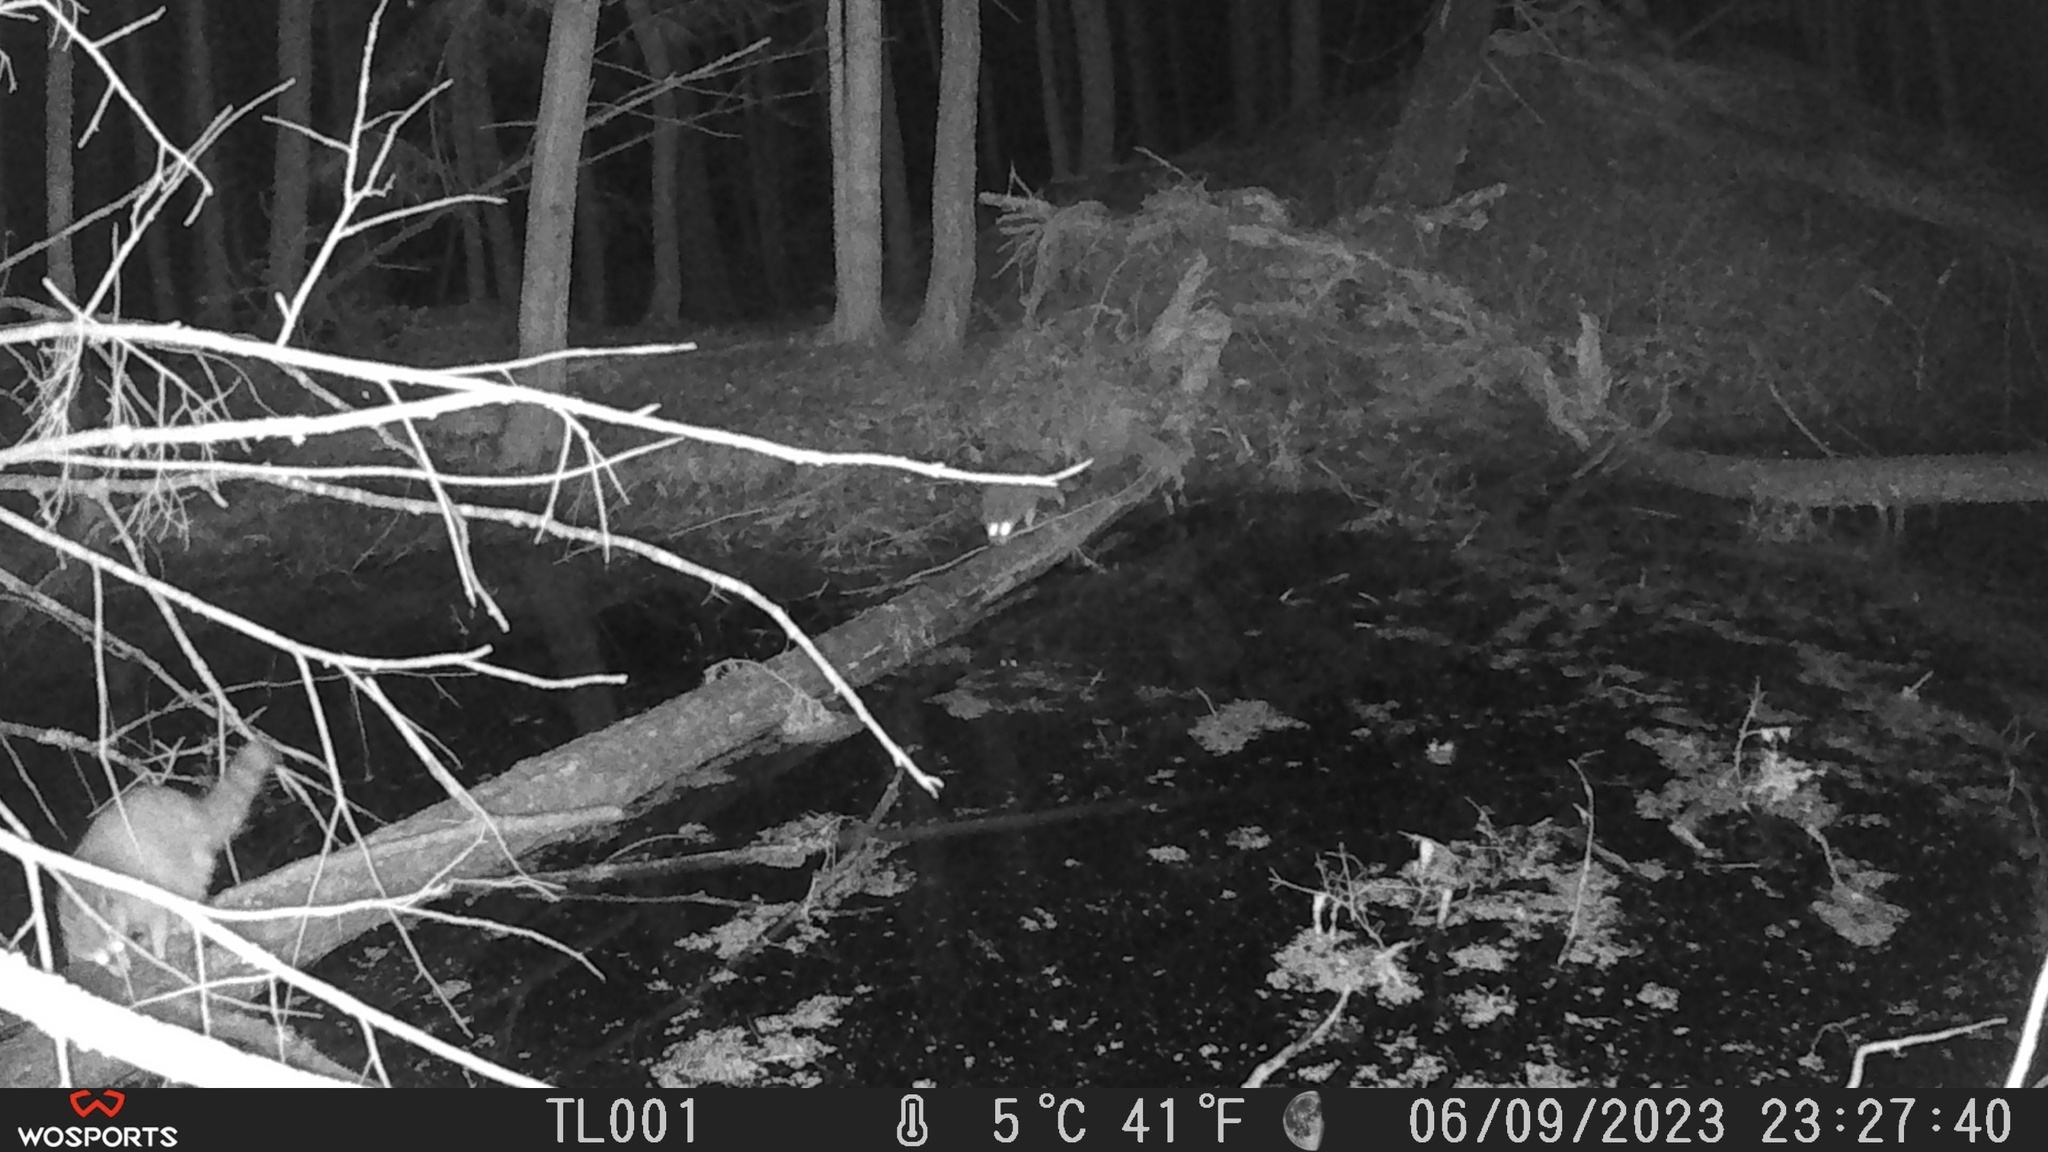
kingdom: Animalia
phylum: Chordata
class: Mammalia
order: Carnivora
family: Procyonidae
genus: Procyon
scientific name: Procyon lotor
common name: Raccoon
